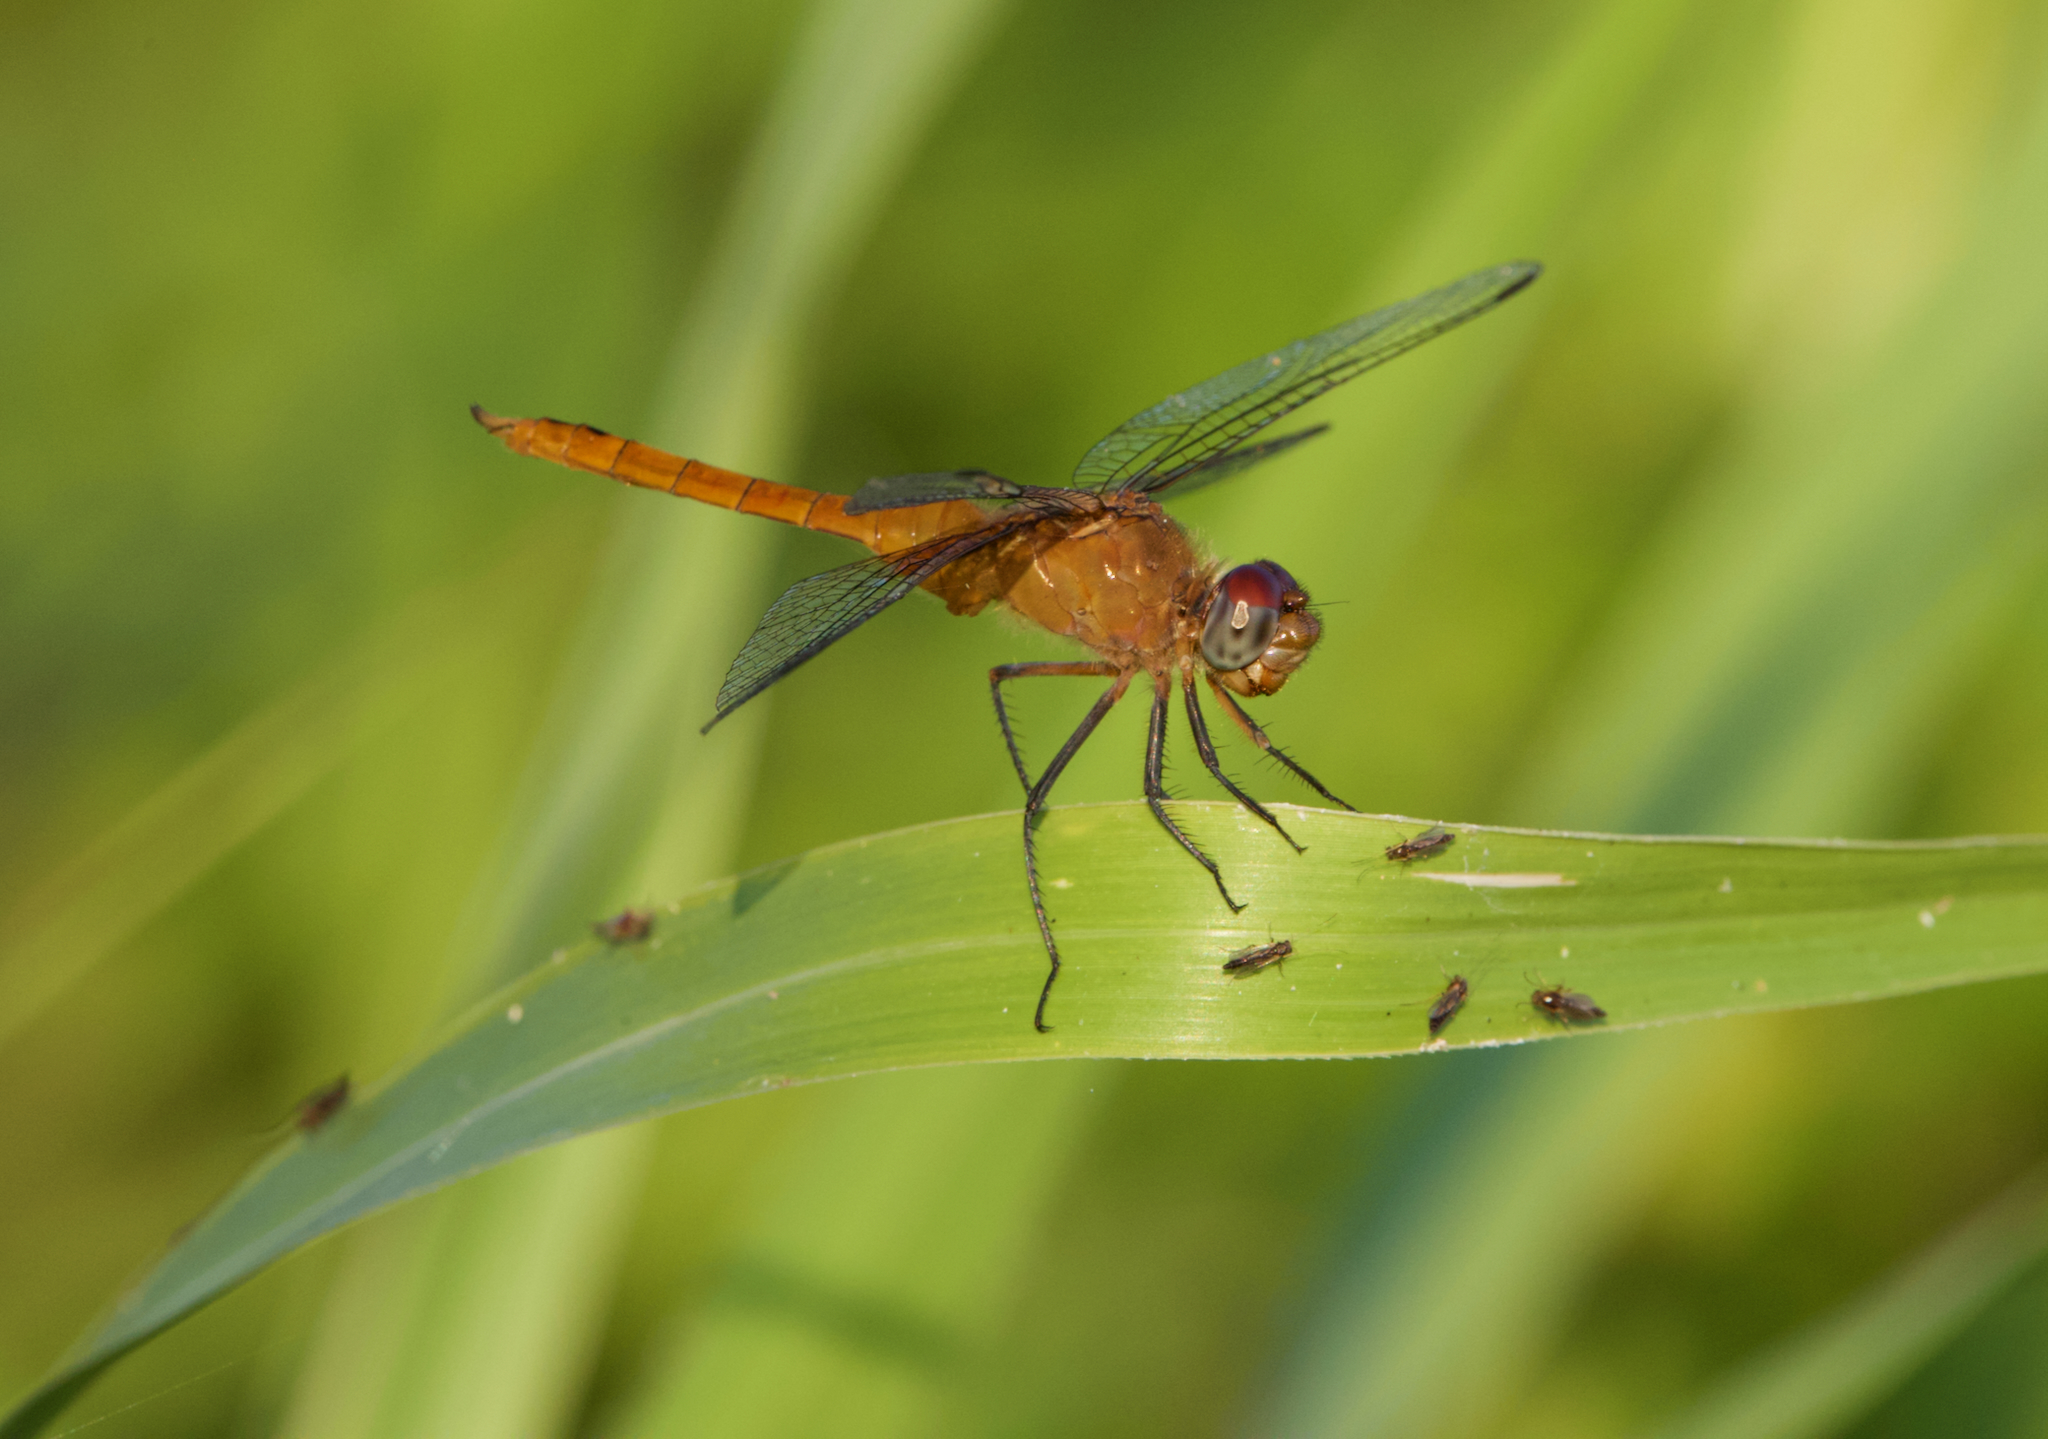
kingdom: Animalia
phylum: Arthropoda
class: Insecta
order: Odonata
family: Libellulidae
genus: Brachymesia
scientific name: Brachymesia furcata
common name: Red-taled pennant
